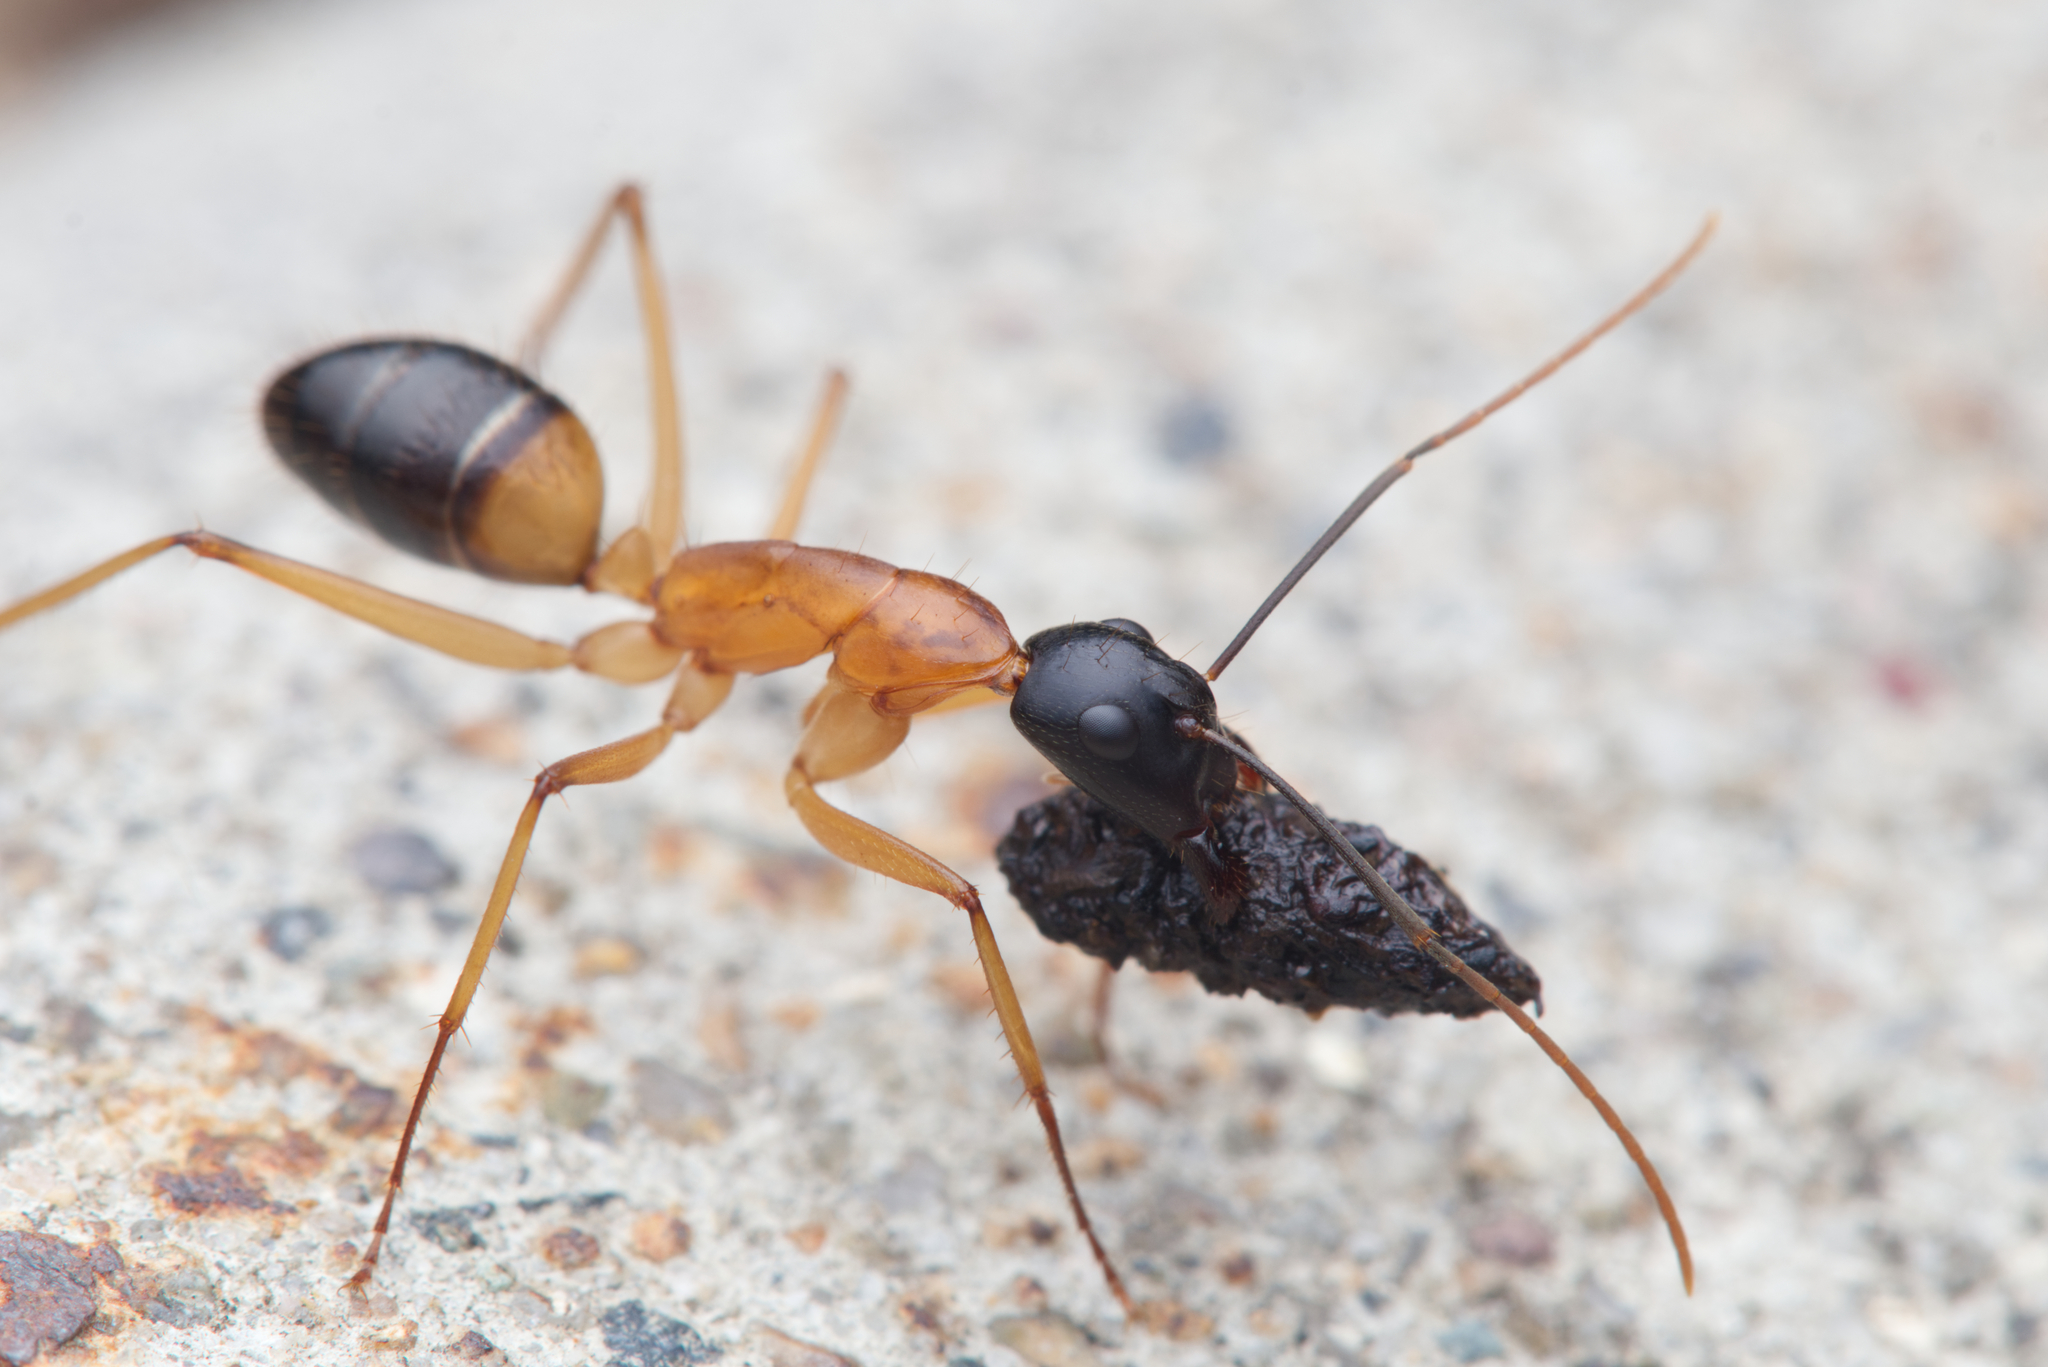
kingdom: Animalia
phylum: Arthropoda
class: Insecta
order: Hymenoptera
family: Formicidae
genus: Camponotus
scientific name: Camponotus consobrinus
